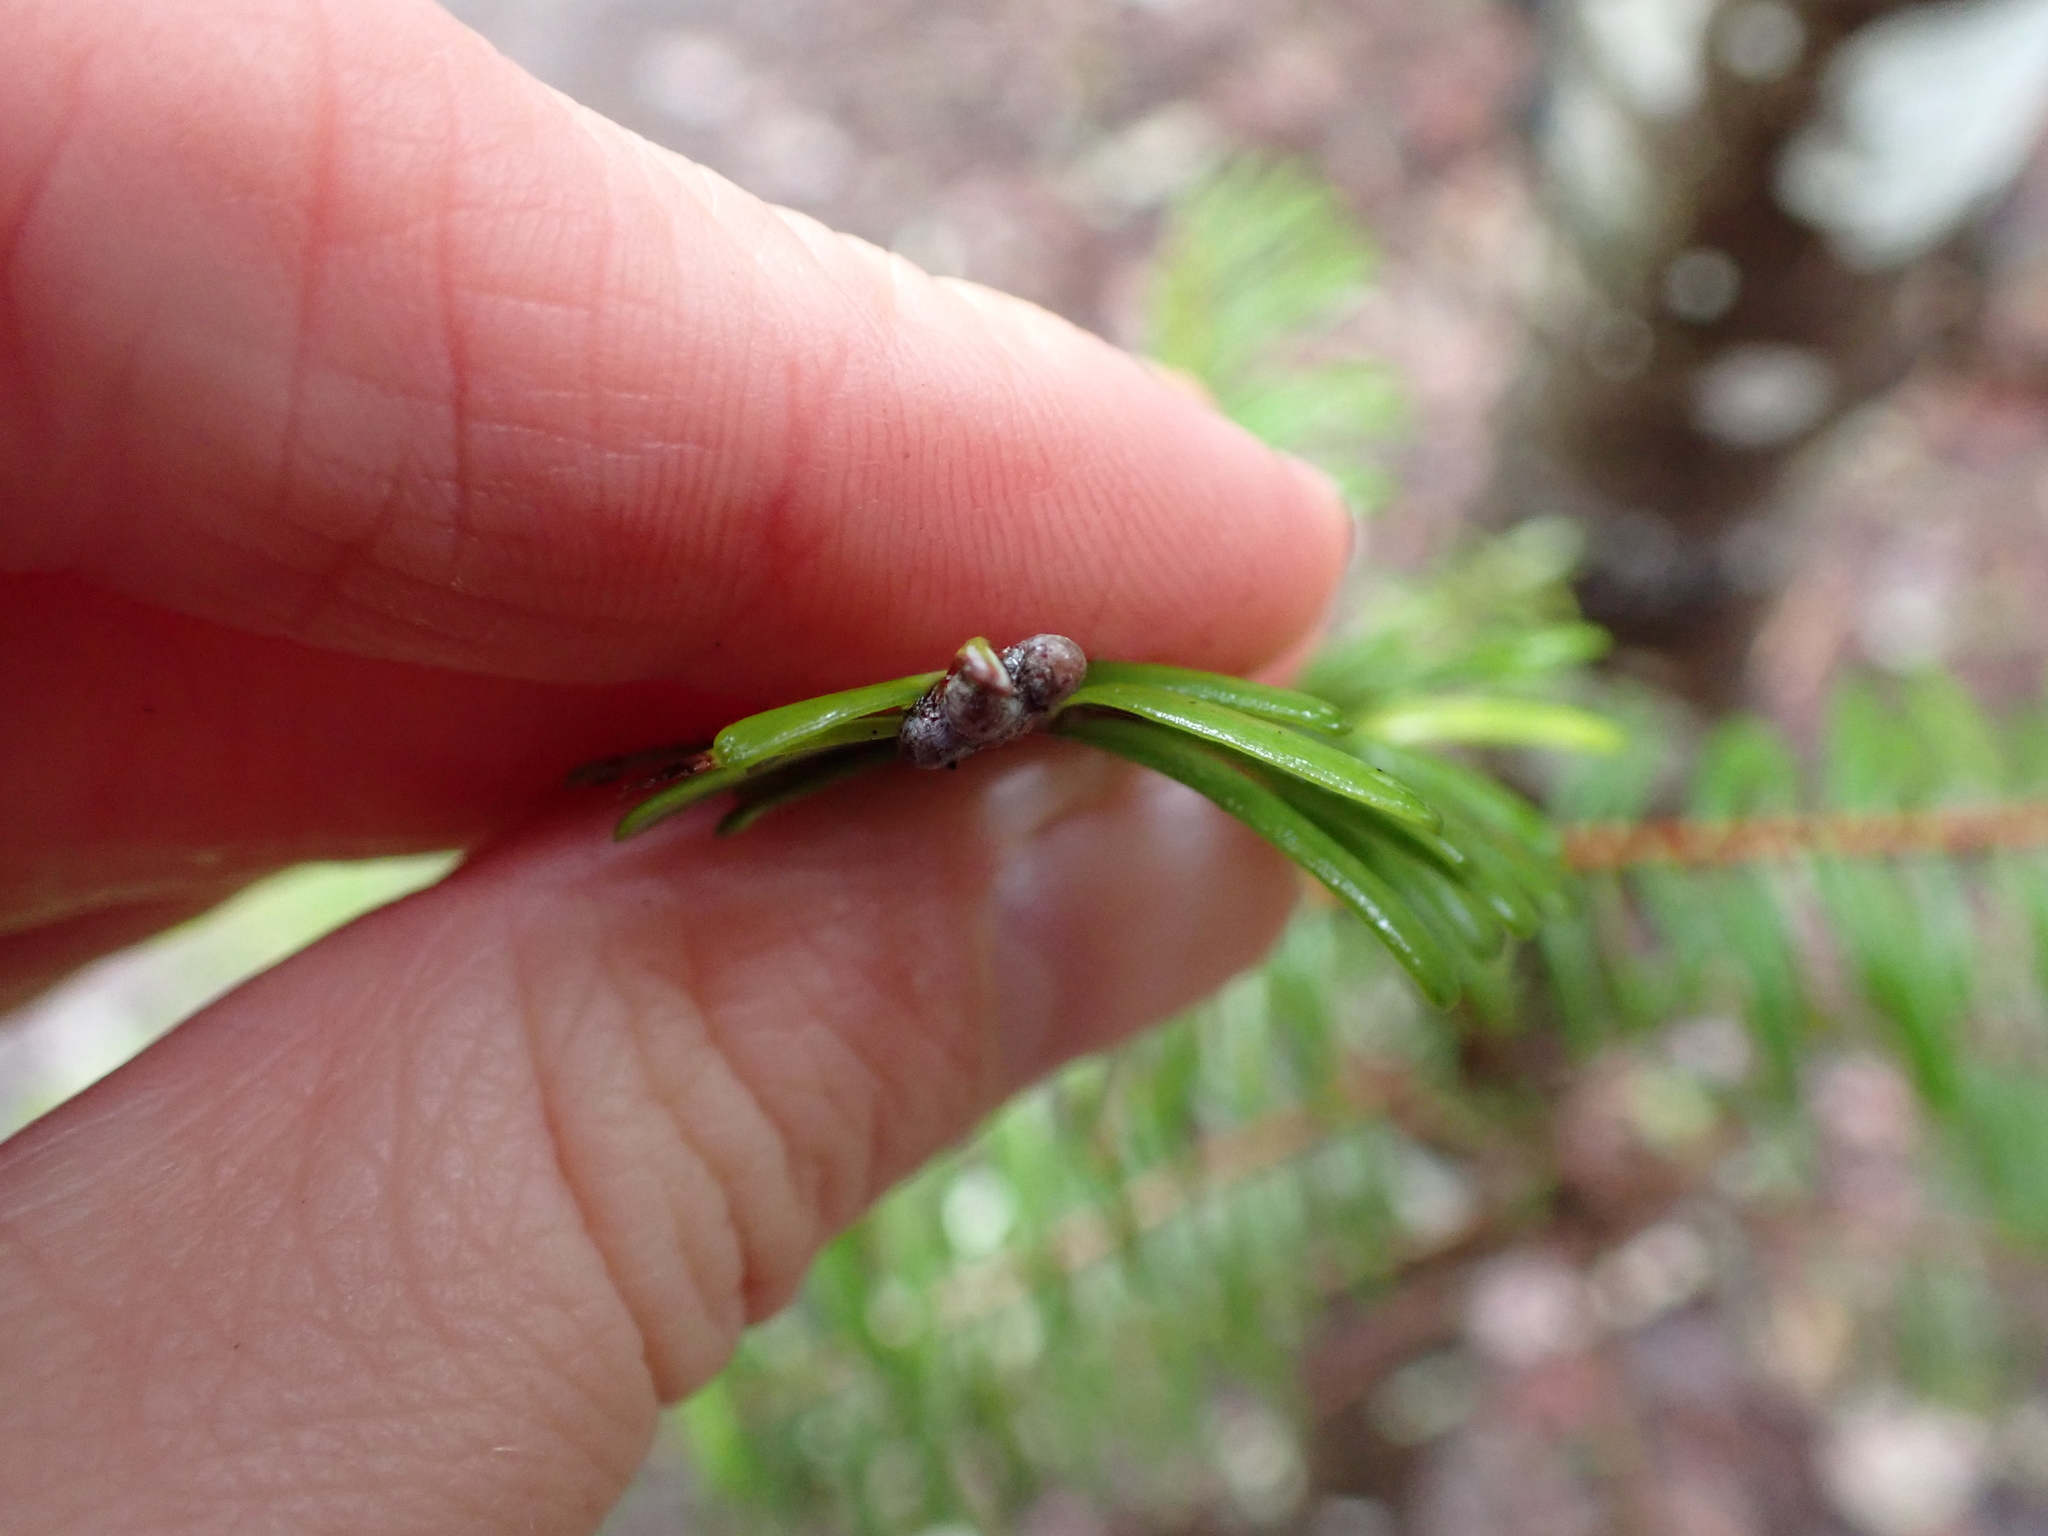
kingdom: Plantae
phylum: Tracheophyta
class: Pinopsida
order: Pinales
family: Pinaceae
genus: Abies
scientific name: Abies grandis
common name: Giant fir
